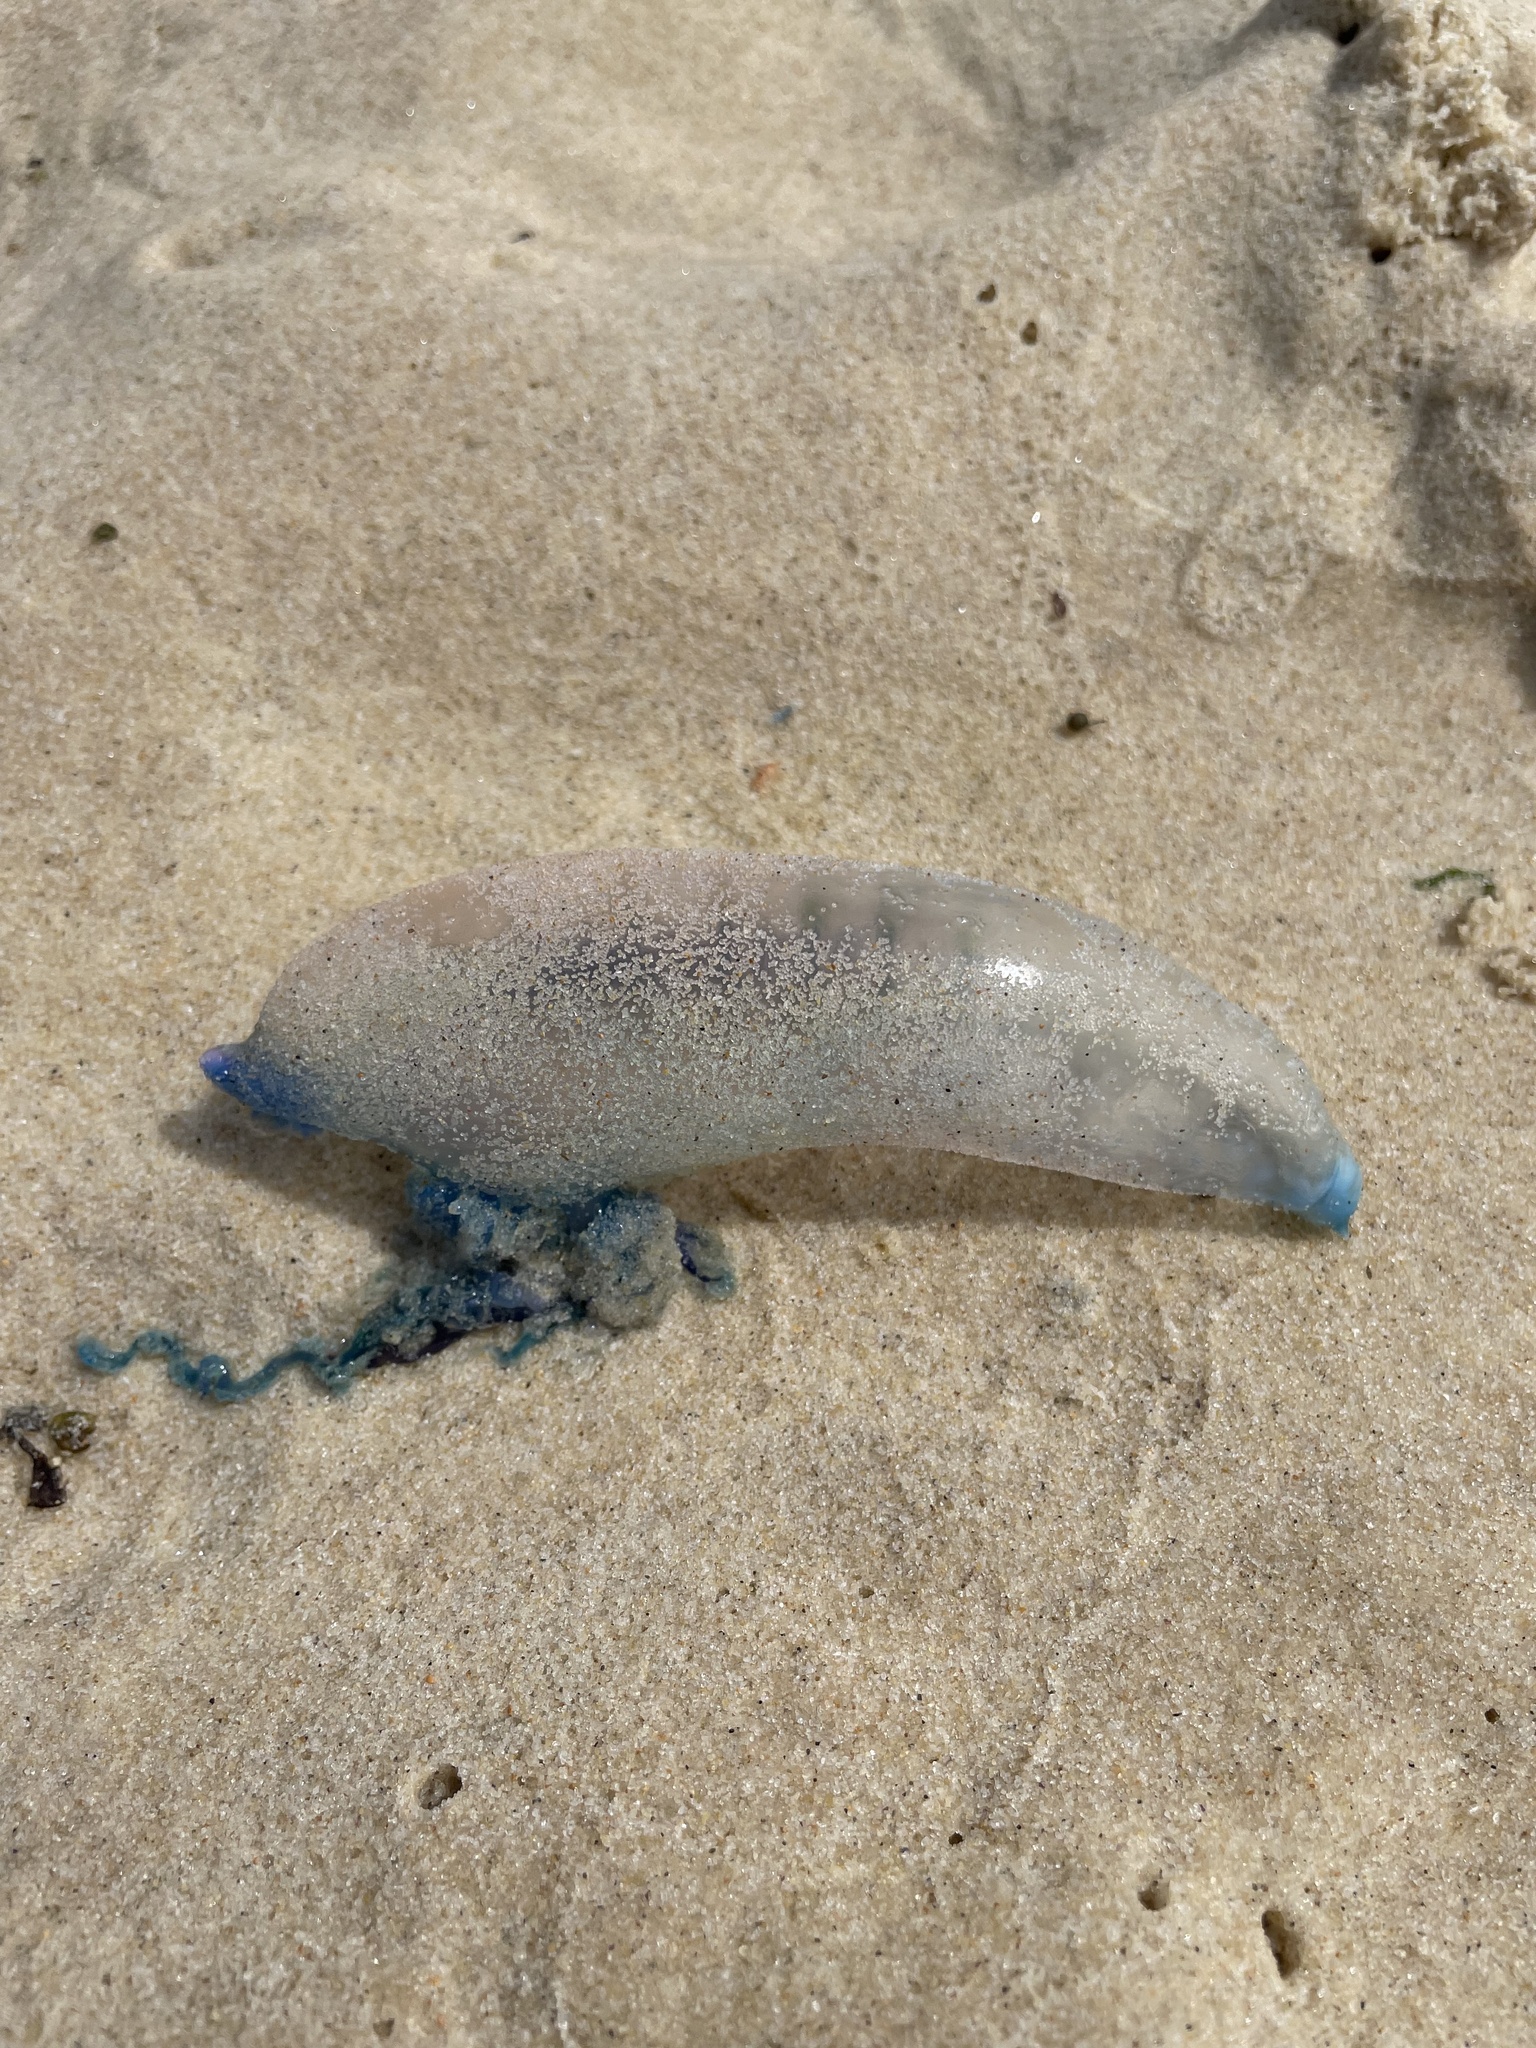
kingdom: Animalia
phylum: Cnidaria
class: Hydrozoa
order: Siphonophorae
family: Physaliidae
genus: Physalia
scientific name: Physalia physalis
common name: Portuguese man-of-war
